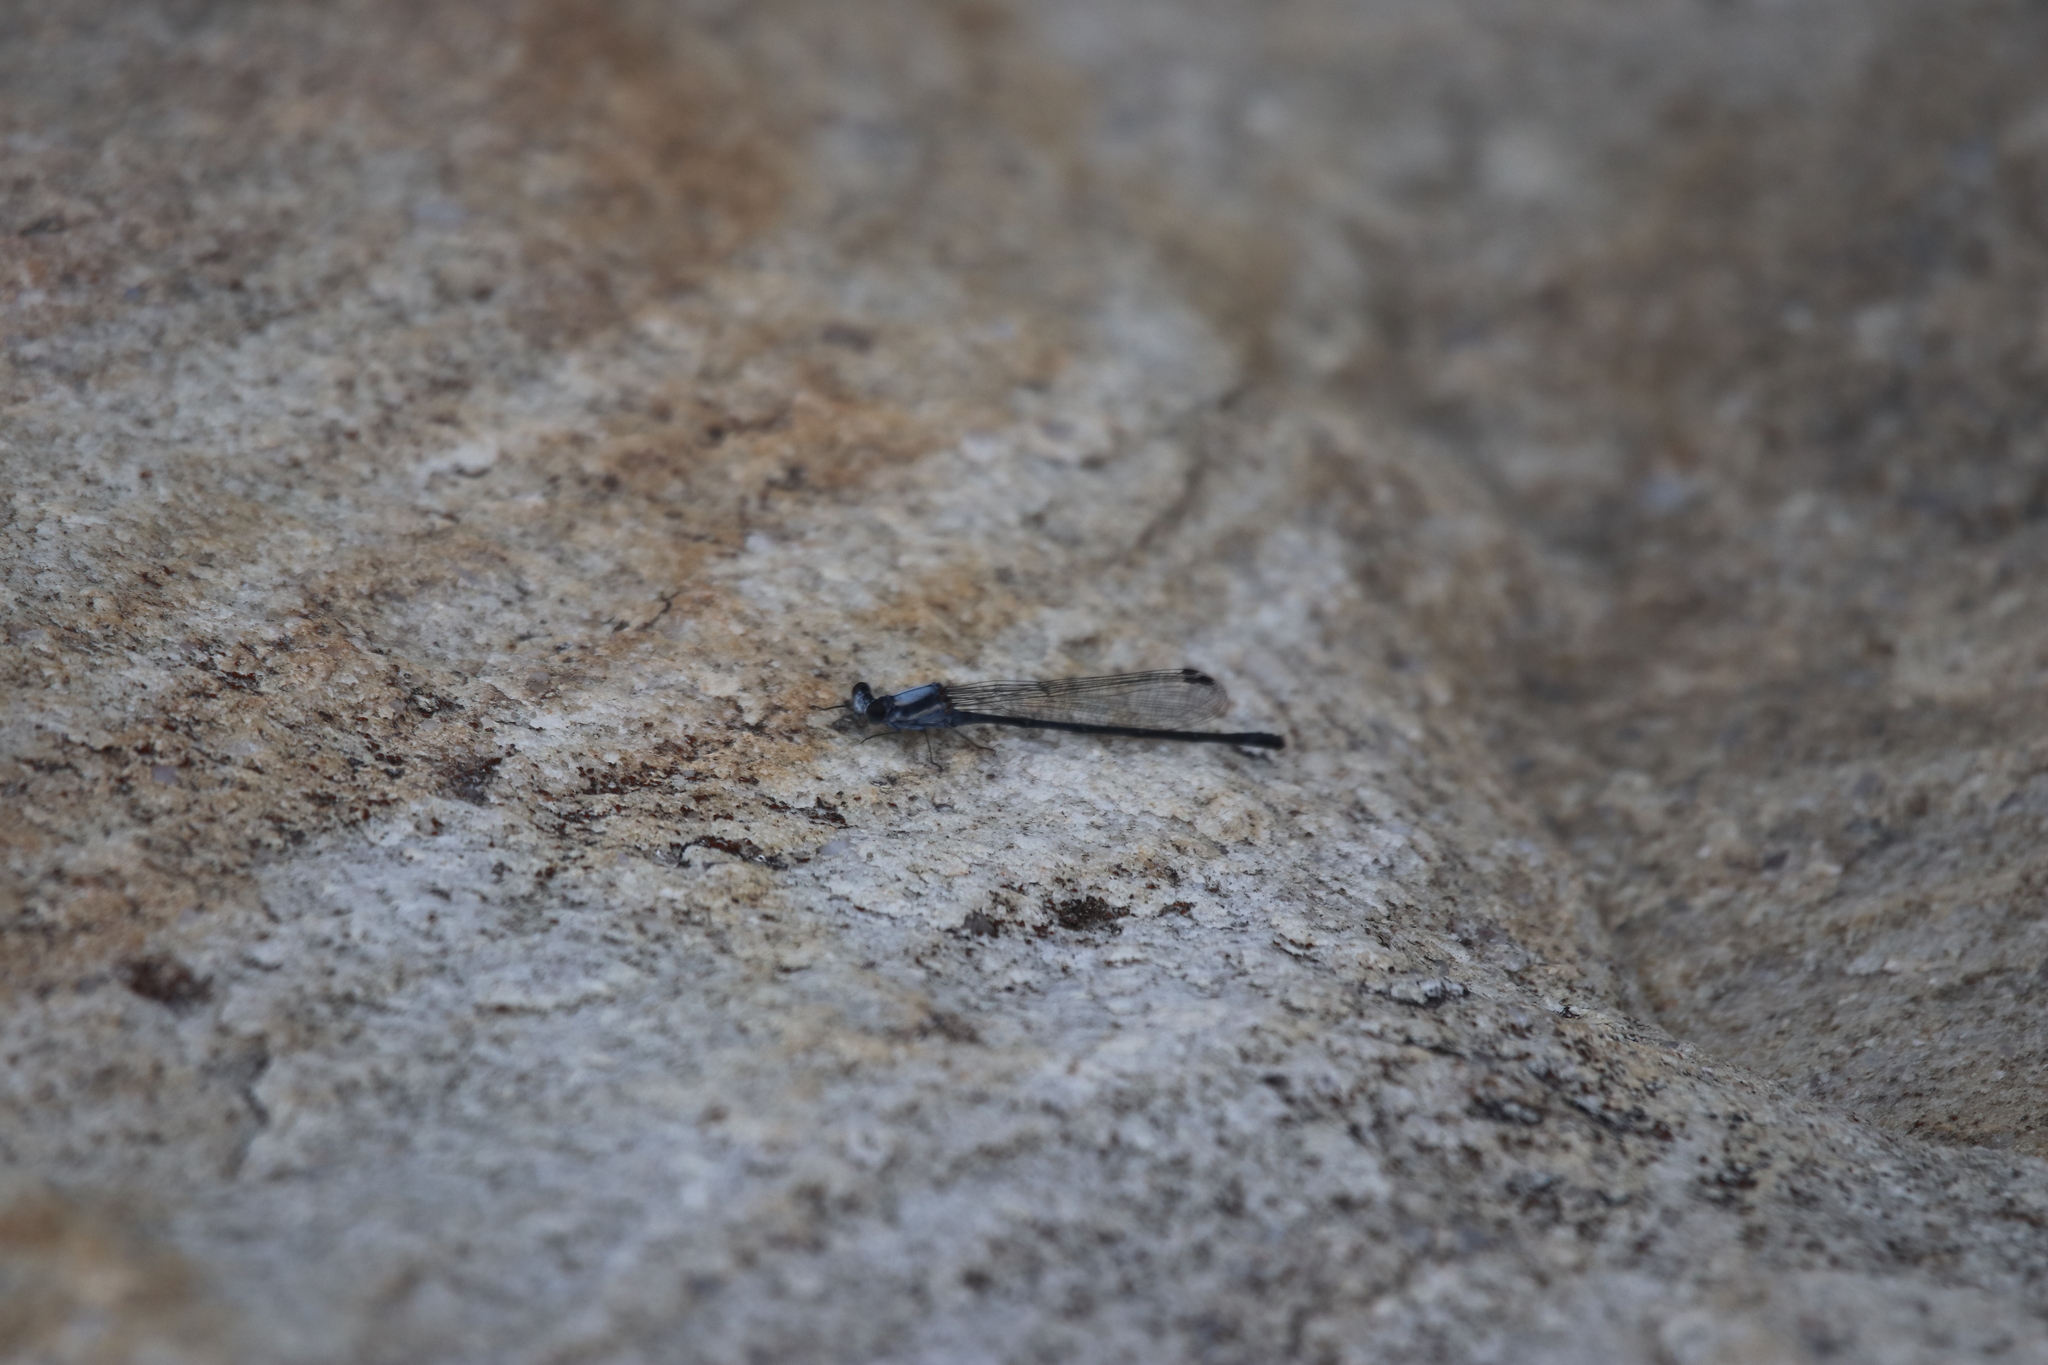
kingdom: Animalia
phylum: Arthropoda
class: Insecta
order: Odonata
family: Coenagrionidae
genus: Argia
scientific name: Argia moesta
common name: Powdered dancer
